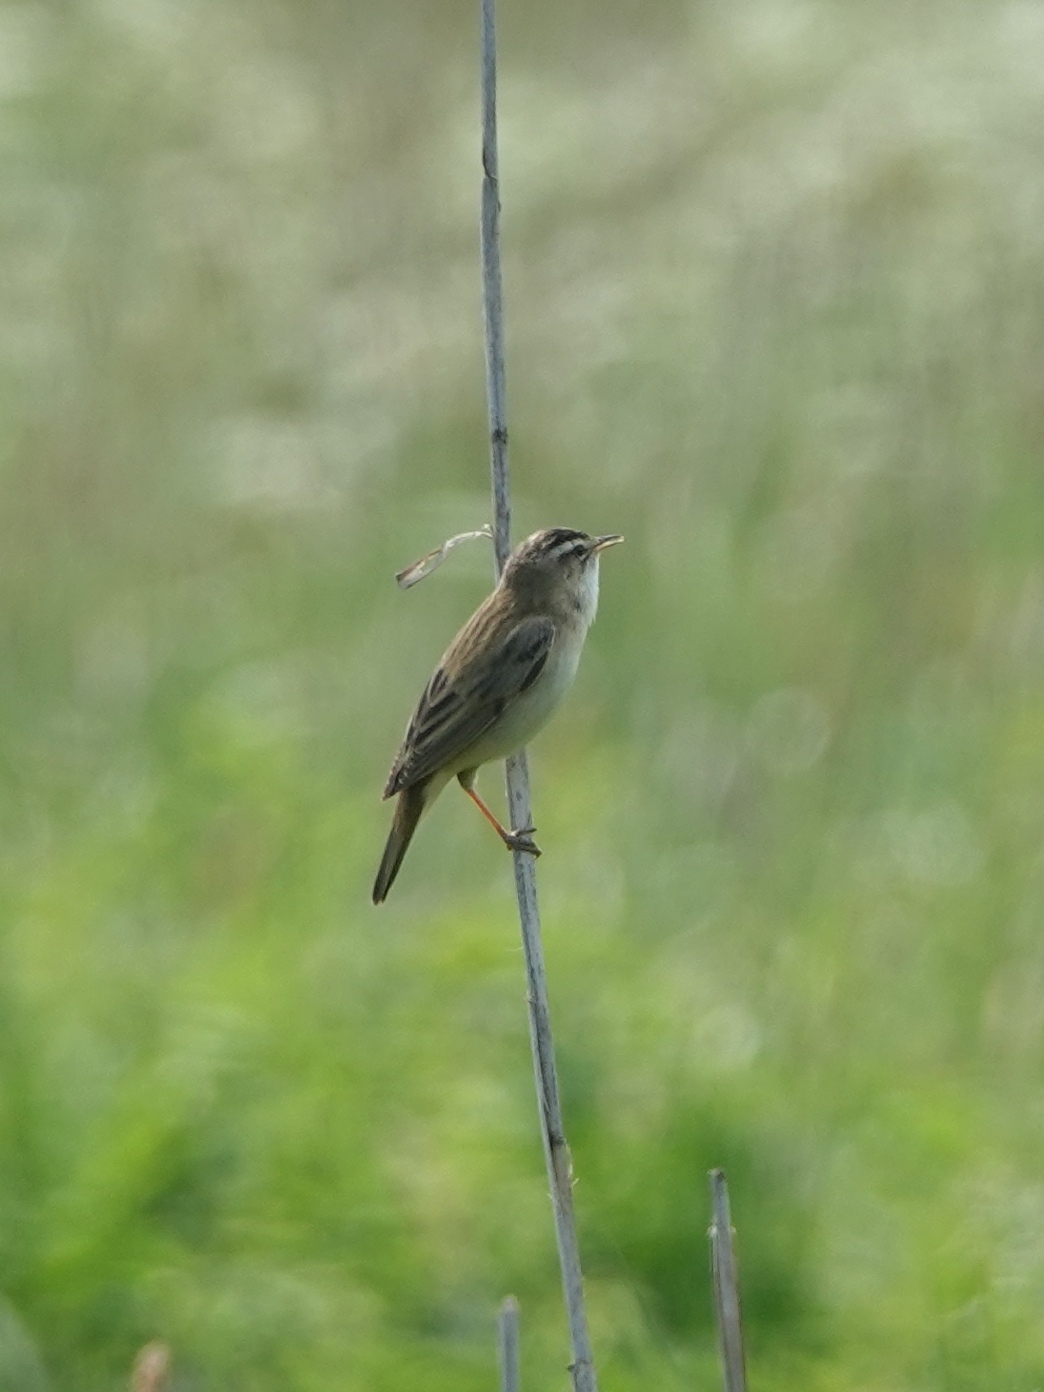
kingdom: Animalia
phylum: Chordata
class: Aves
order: Passeriformes
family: Acrocephalidae
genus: Acrocephalus
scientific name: Acrocephalus schoenobaenus
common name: Sedge warbler
